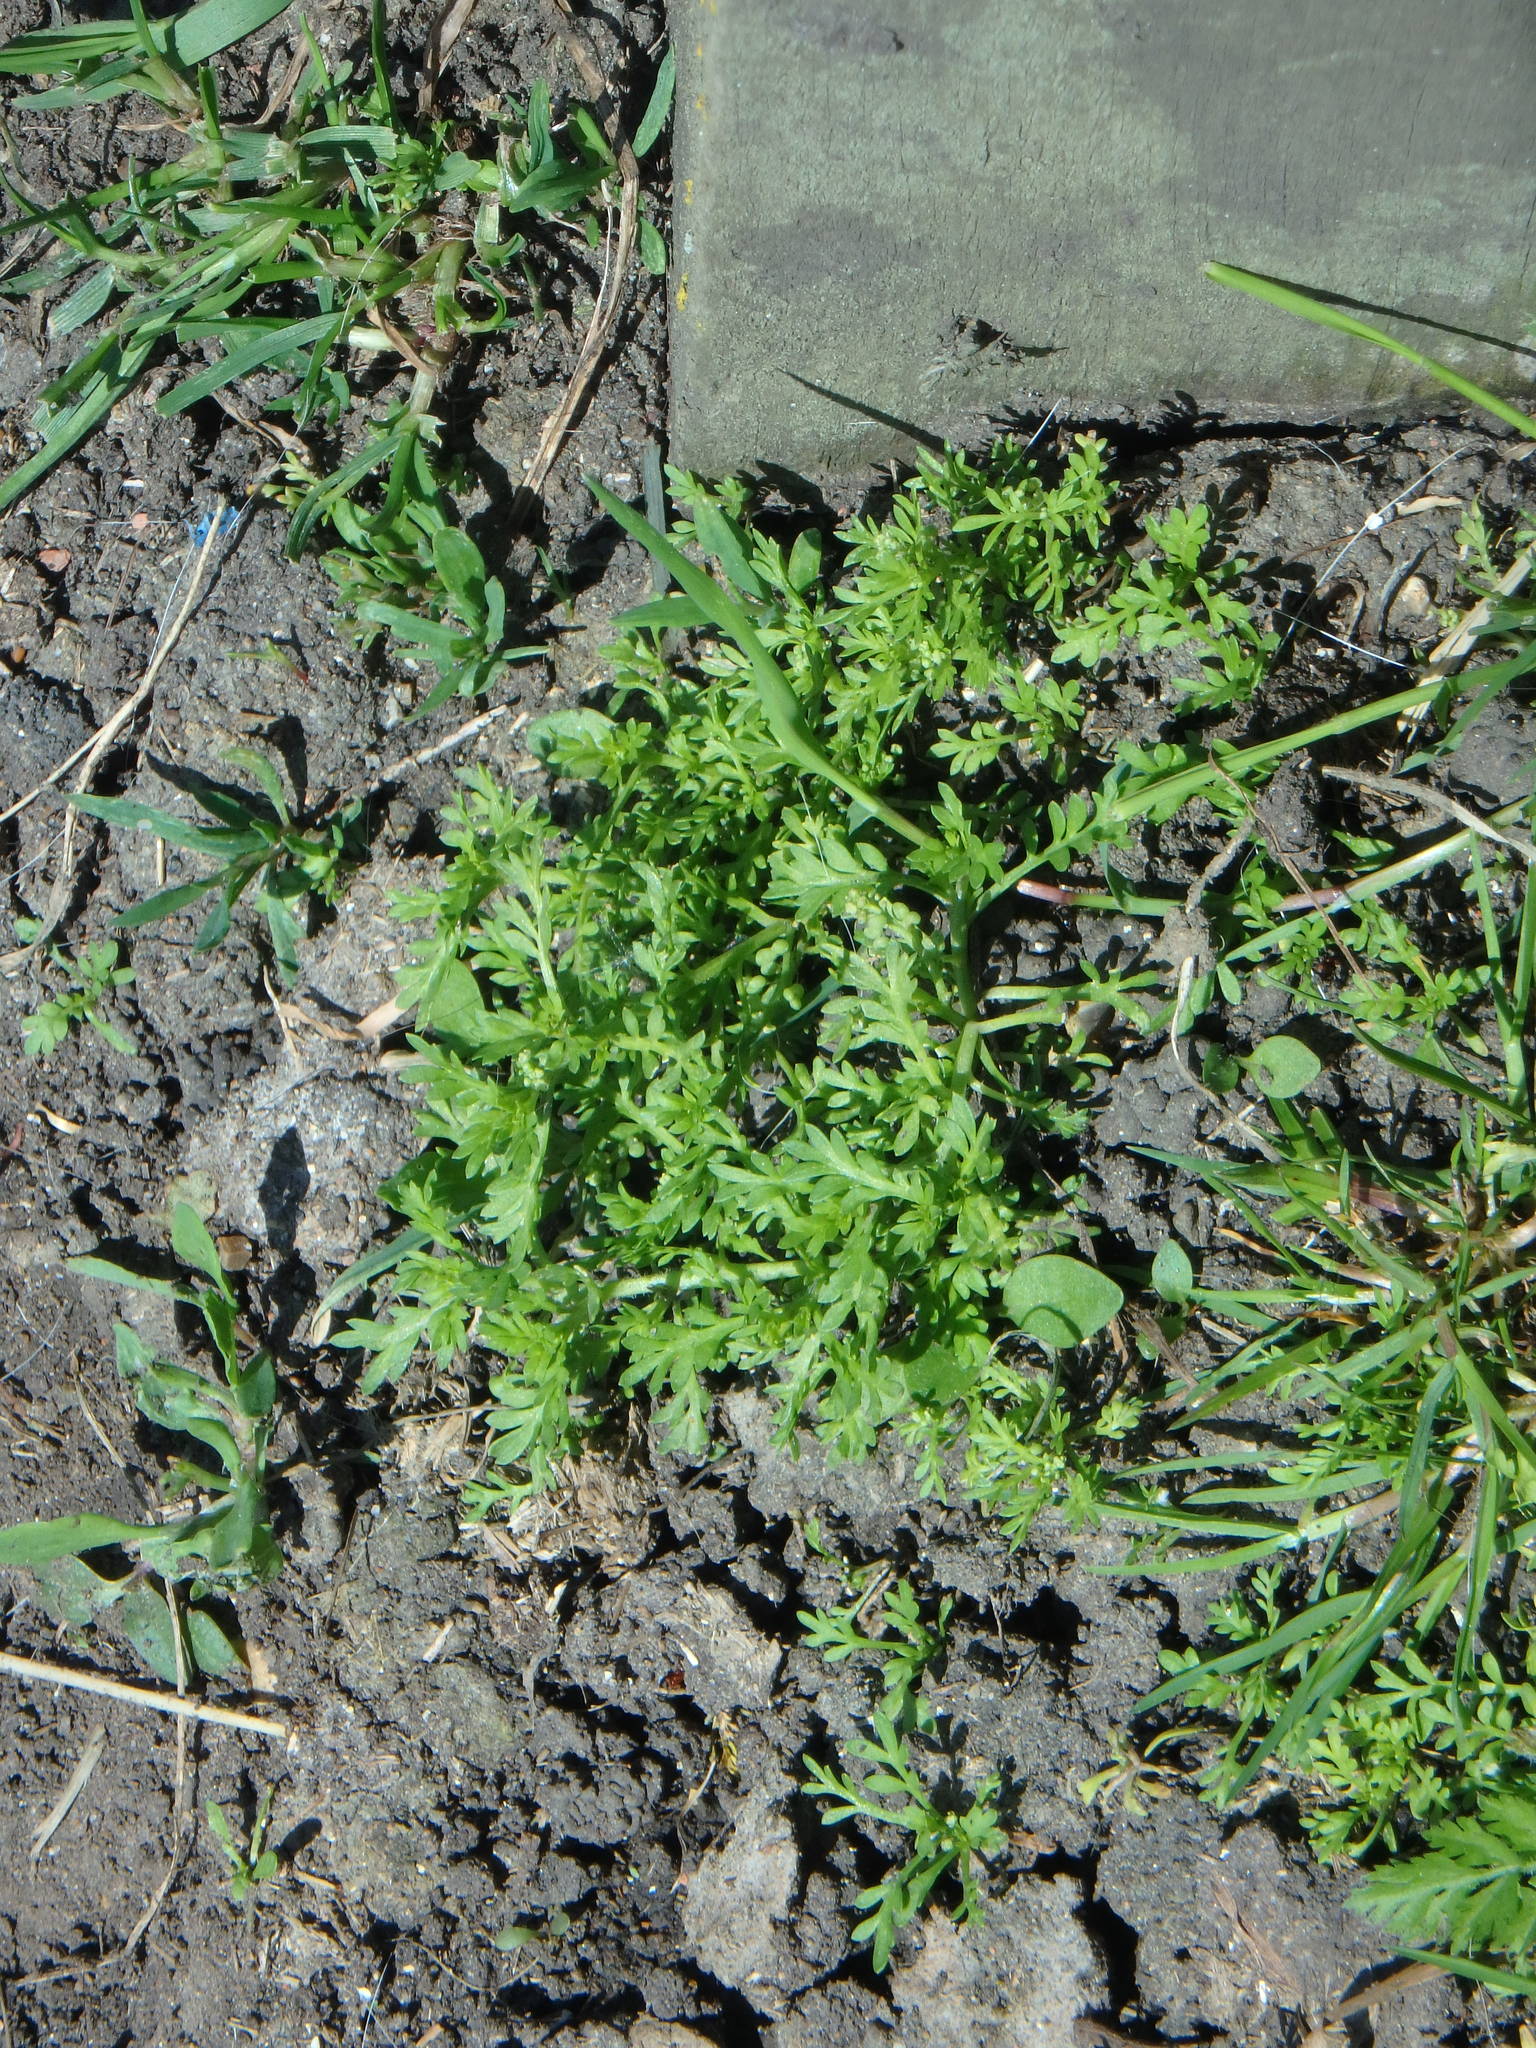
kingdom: Plantae
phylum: Tracheophyta
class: Magnoliopsida
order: Brassicales
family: Brassicaceae
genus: Lepidium
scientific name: Lepidium didymum
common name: Lesser swinecress
